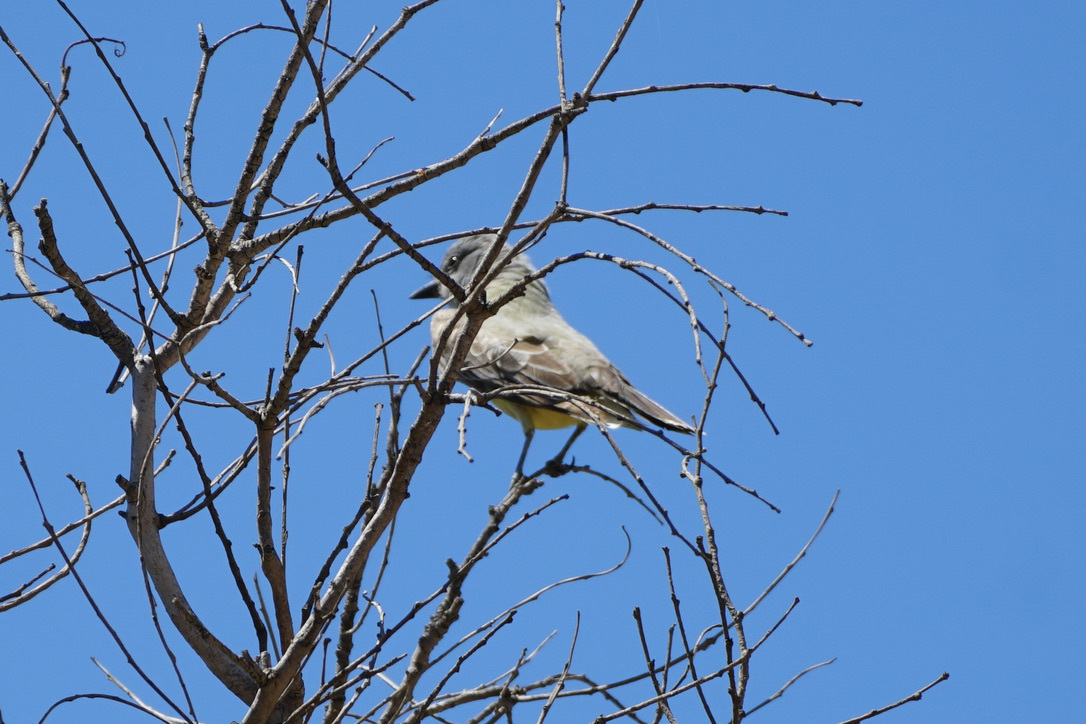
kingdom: Animalia
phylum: Chordata
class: Aves
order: Passeriformes
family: Tyrannidae
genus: Tyrannus
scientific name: Tyrannus vociferans
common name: Cassin's kingbird
